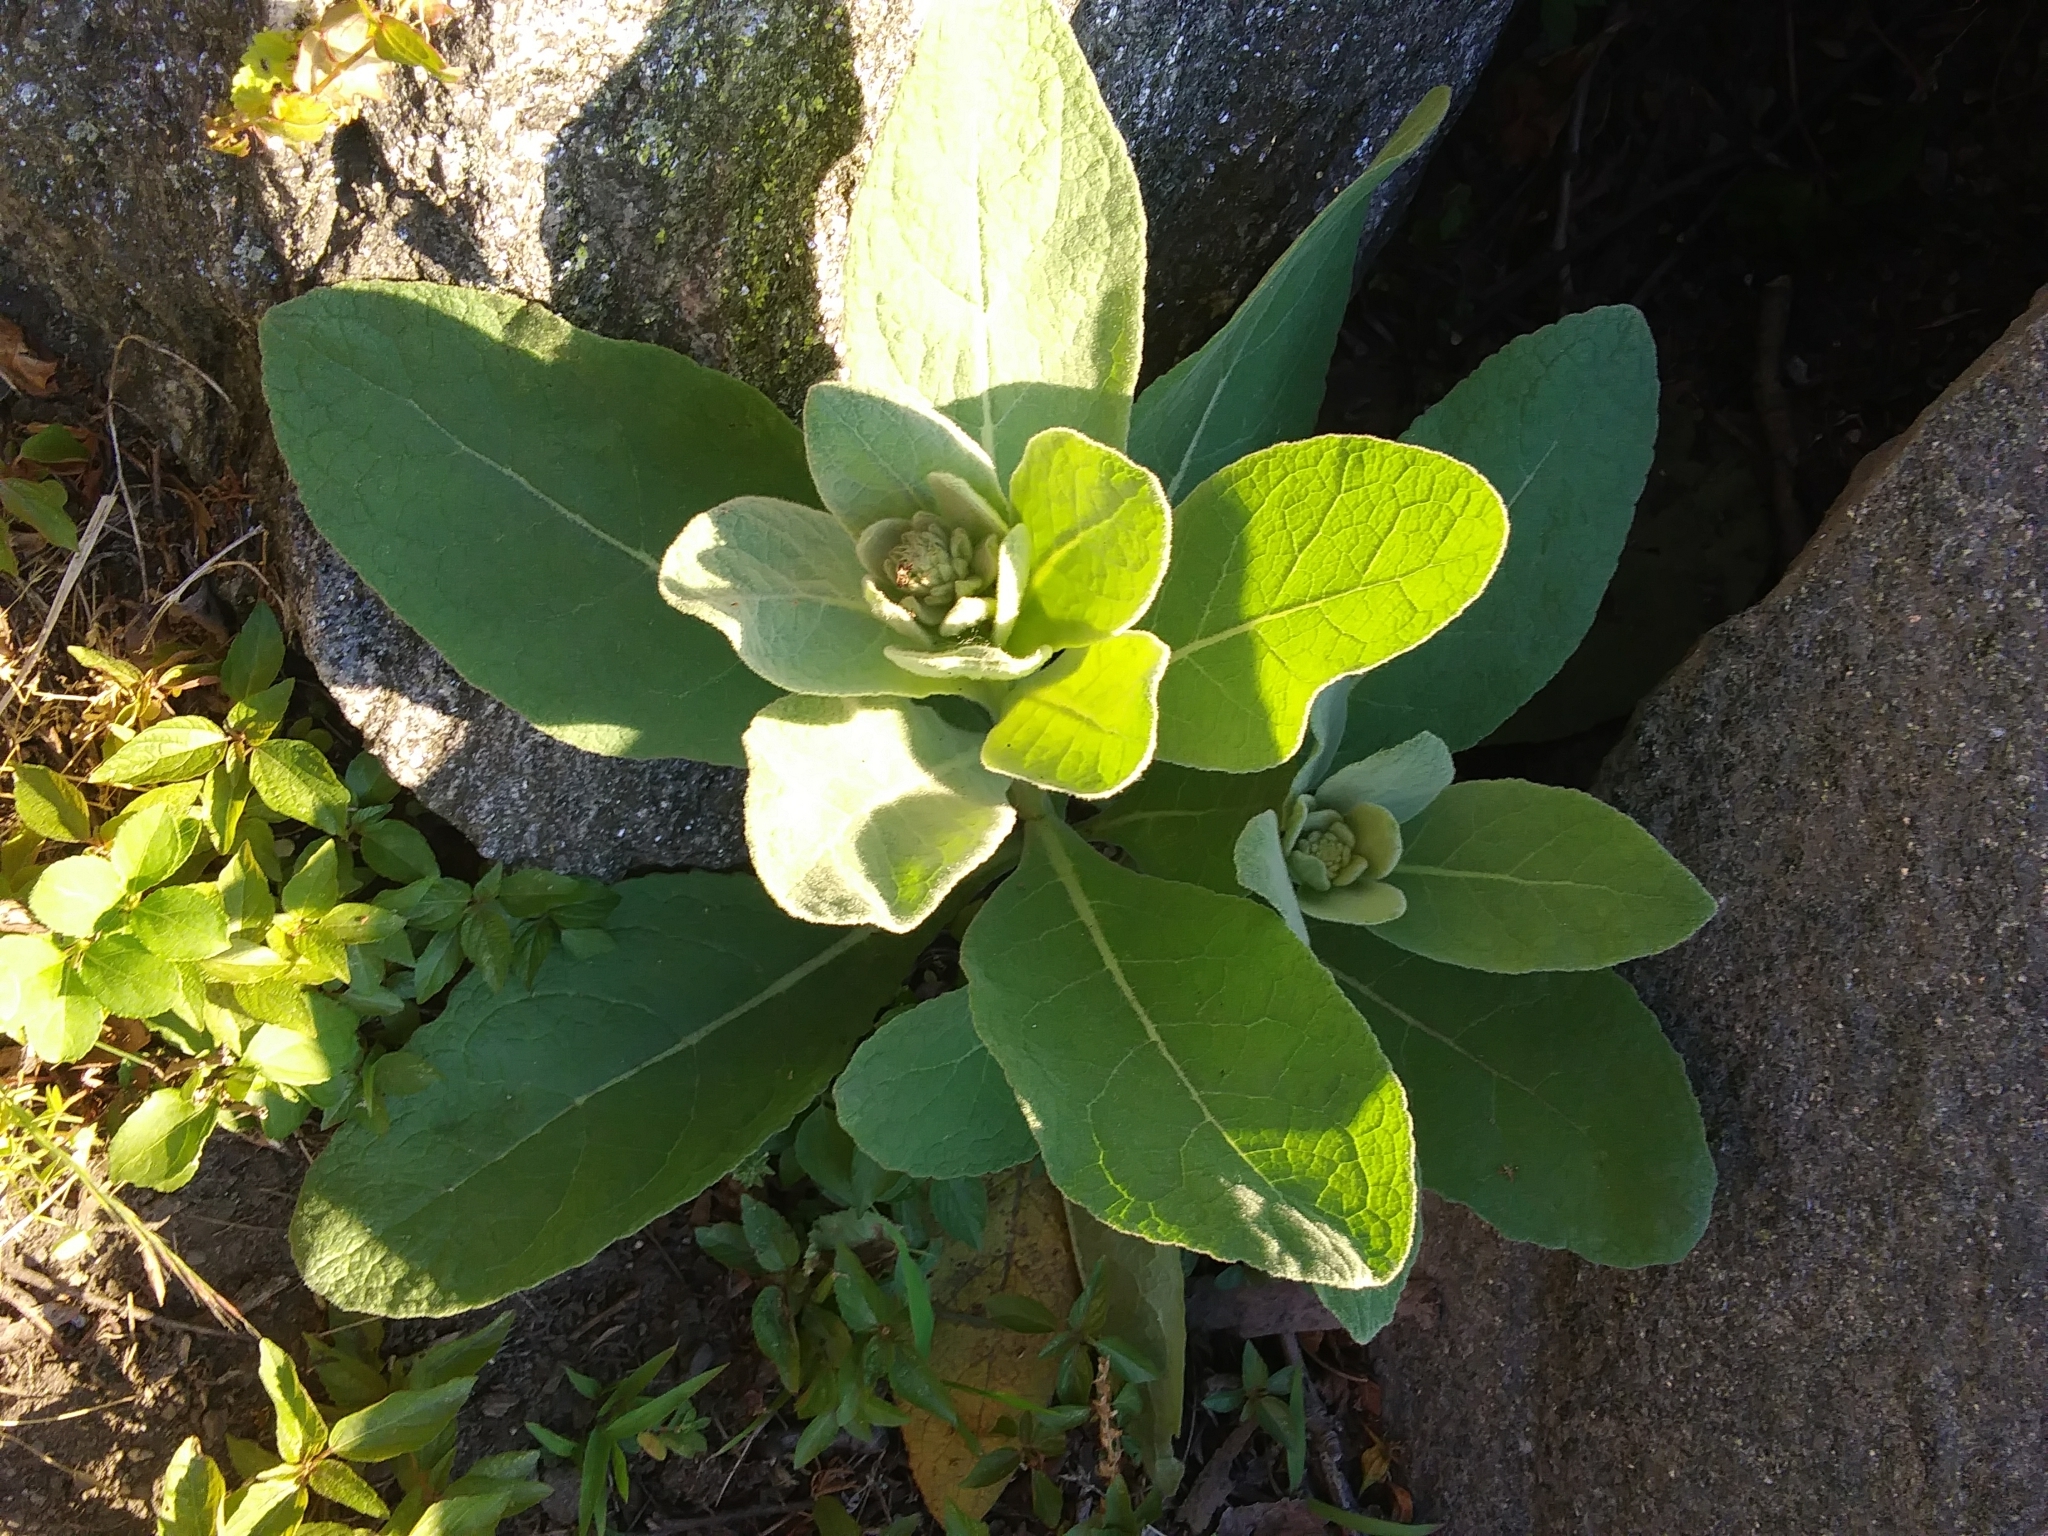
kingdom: Plantae
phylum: Tracheophyta
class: Magnoliopsida
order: Lamiales
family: Scrophulariaceae
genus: Verbascum
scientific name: Verbascum thapsus
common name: Common mullein
